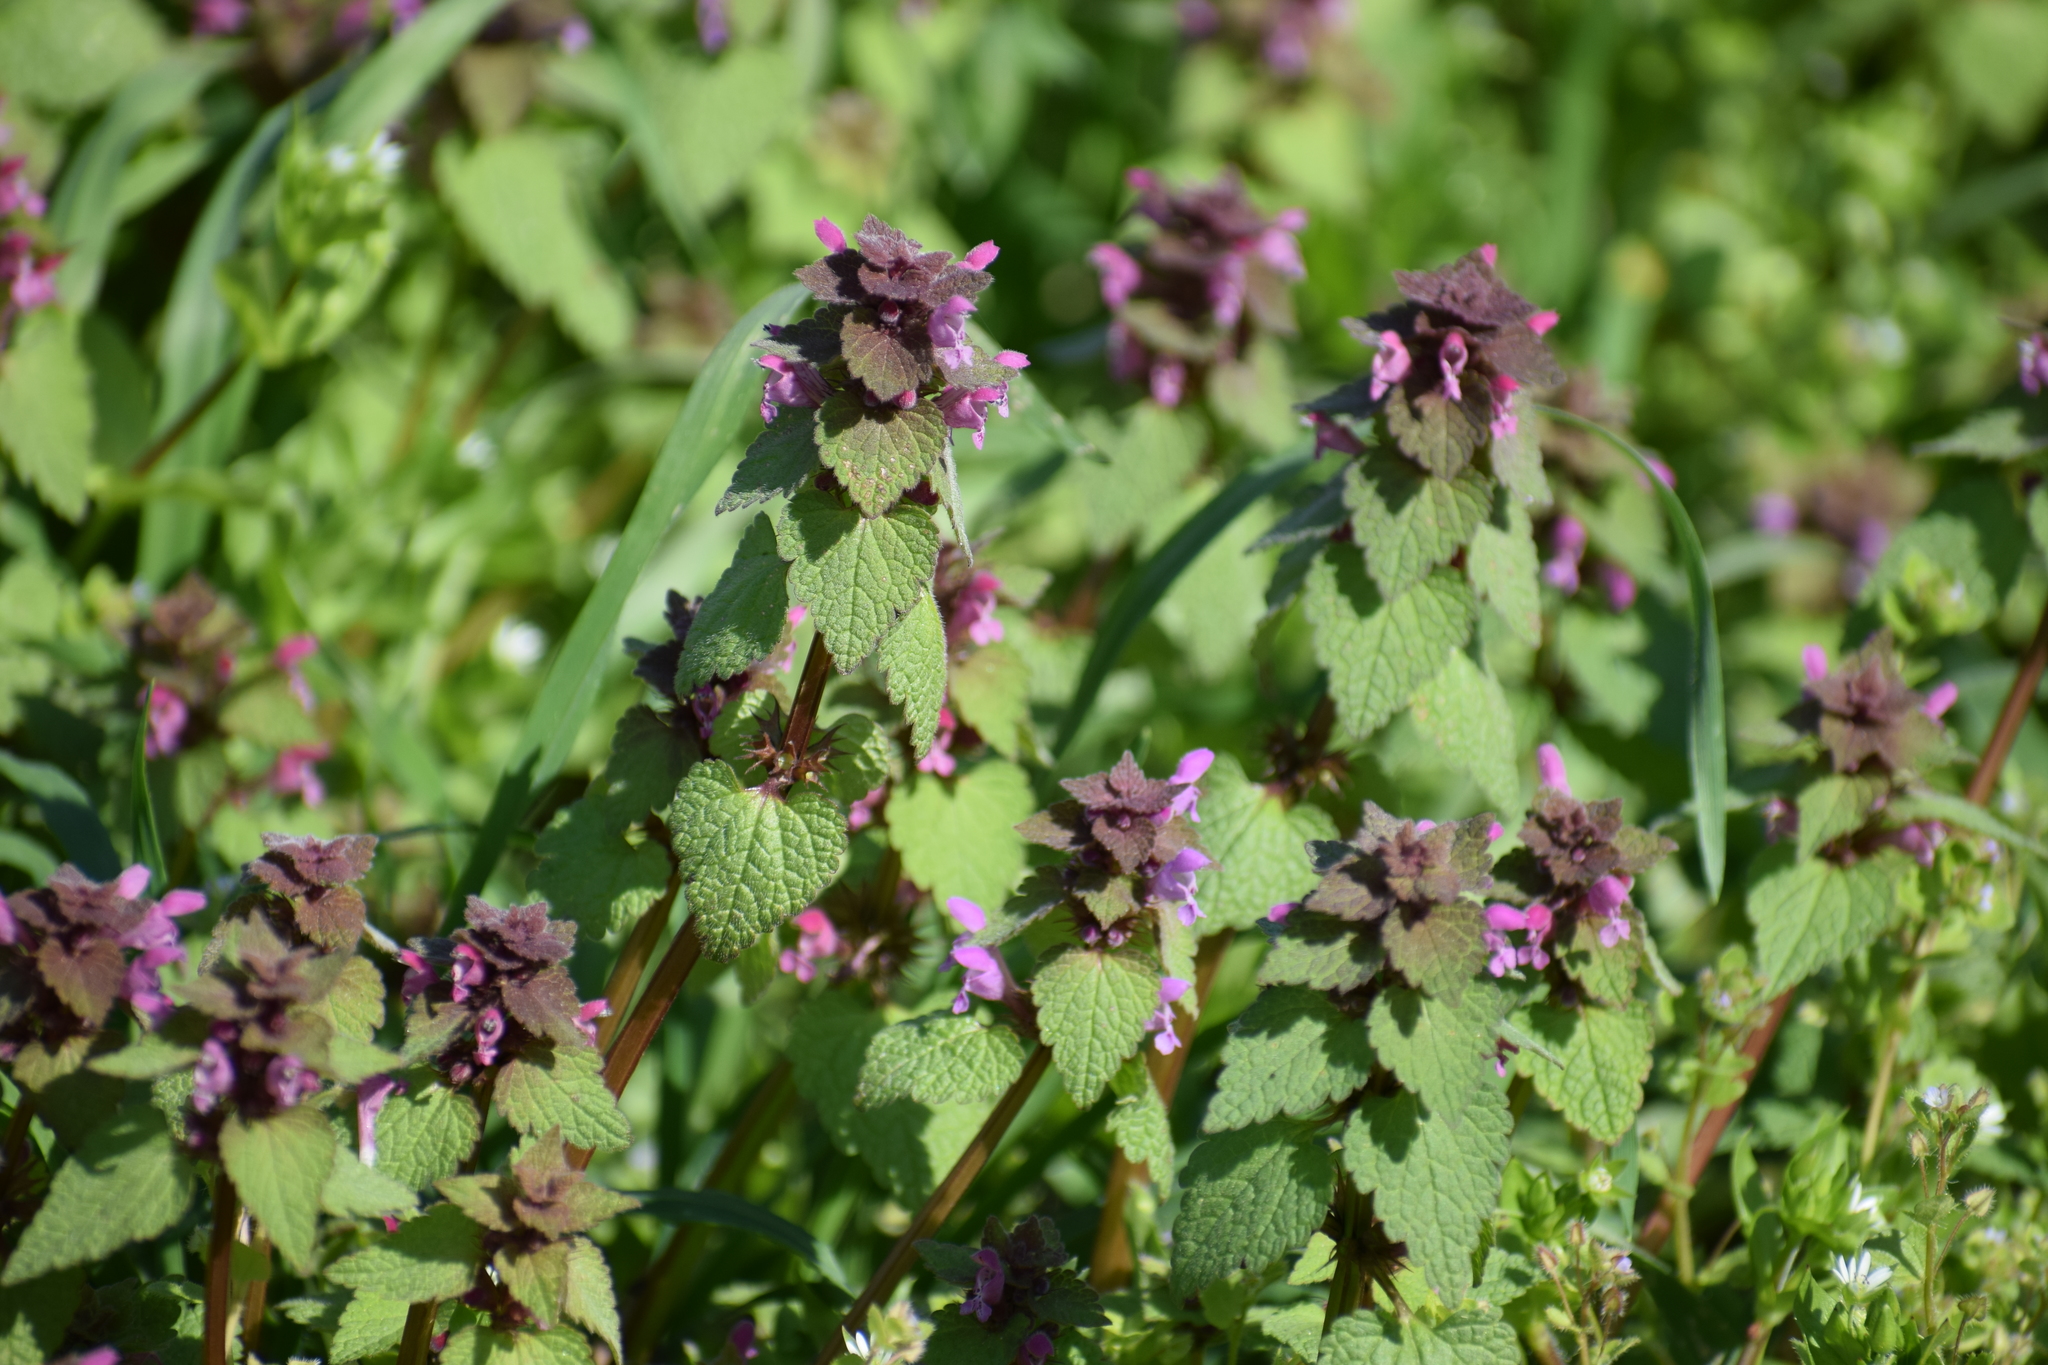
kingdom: Plantae
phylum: Tracheophyta
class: Magnoliopsida
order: Lamiales
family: Lamiaceae
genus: Lamium
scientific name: Lamium purpureum
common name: Red dead-nettle
